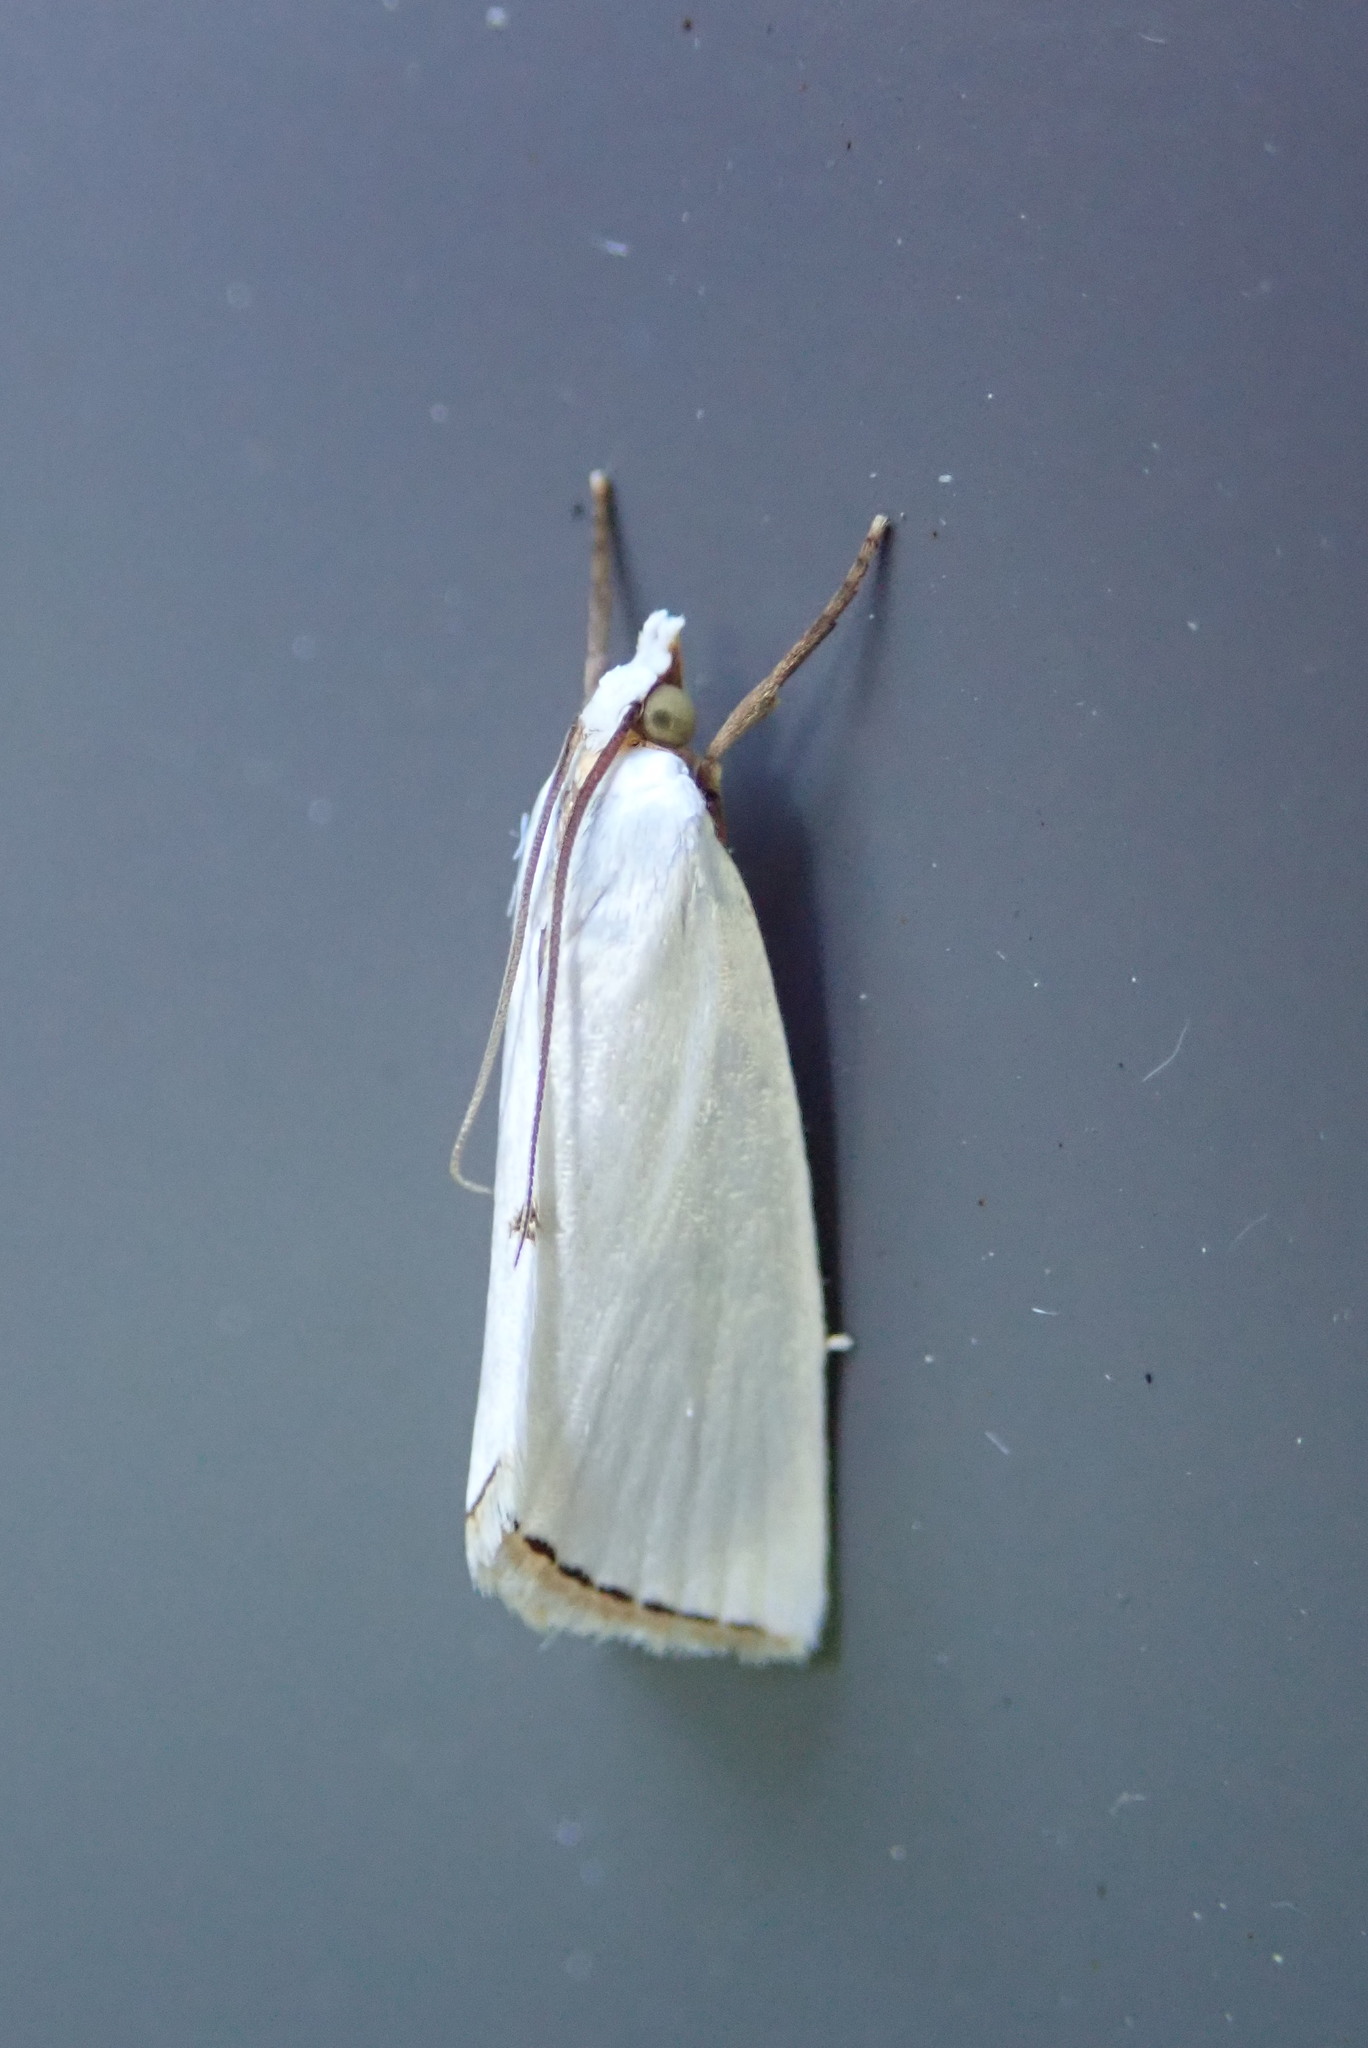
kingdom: Animalia
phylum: Arthropoda
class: Insecta
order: Lepidoptera
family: Crambidae
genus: Argyria
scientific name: Argyria nivalis
